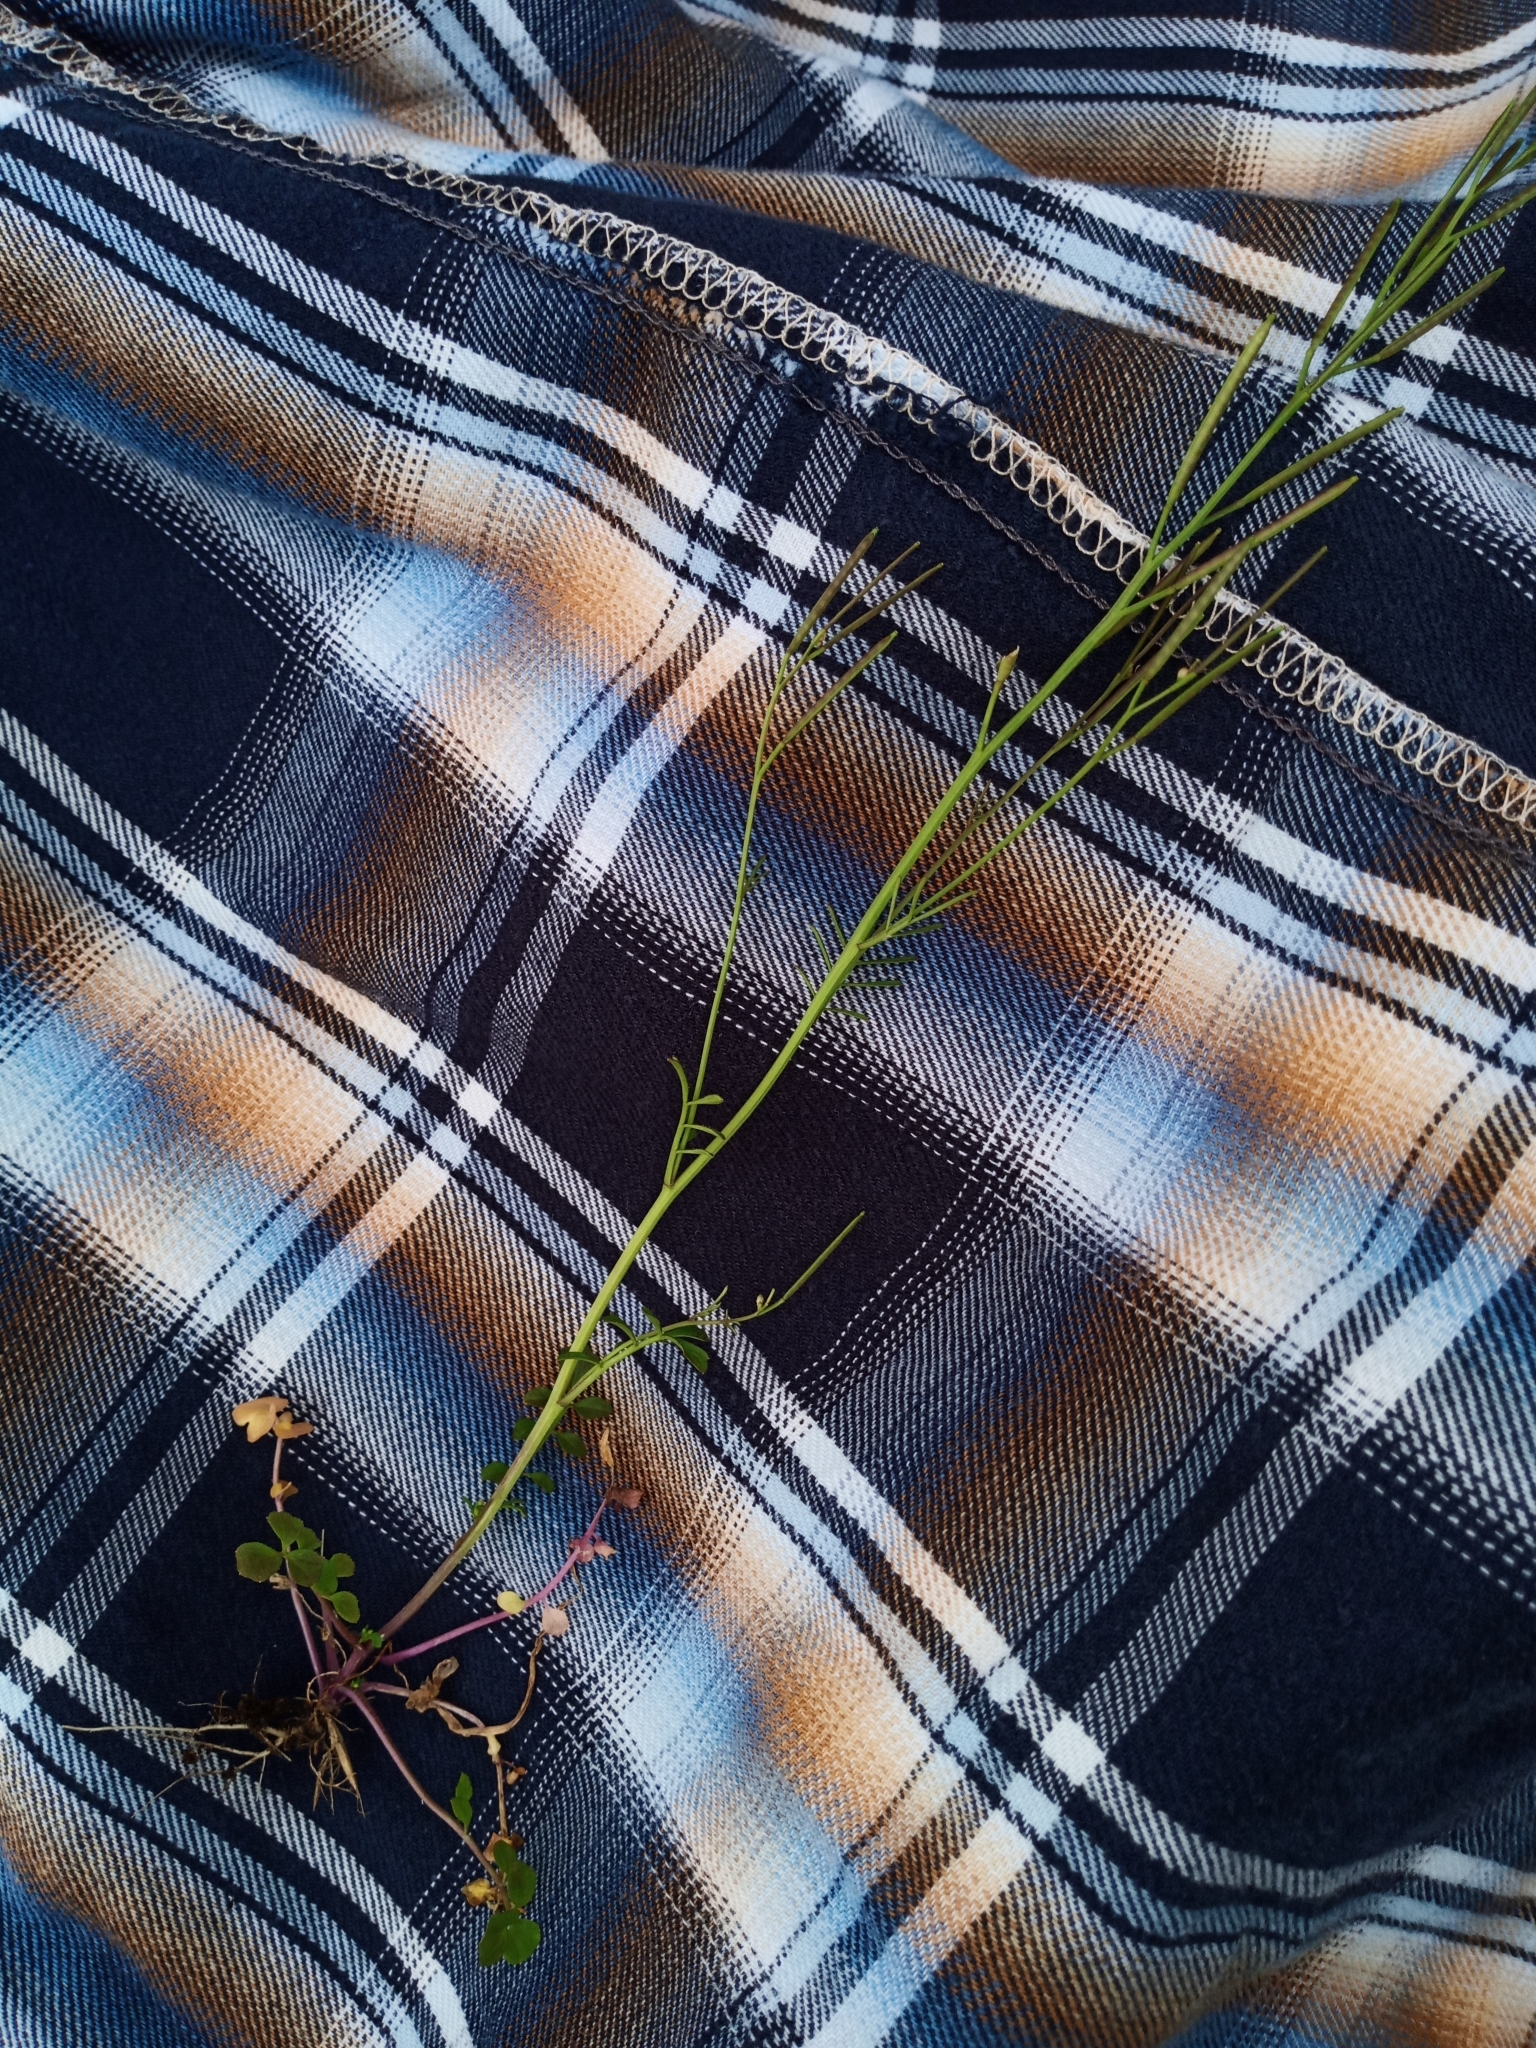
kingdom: Plantae
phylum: Tracheophyta
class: Magnoliopsida
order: Brassicales
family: Brassicaceae
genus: Cardamine
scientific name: Cardamine hirsuta
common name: Hairy bittercress
